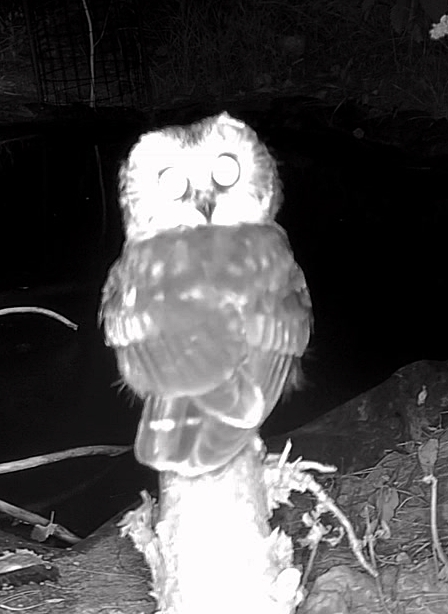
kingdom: Animalia
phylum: Chordata
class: Aves
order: Strigiformes
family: Strigidae
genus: Aegolius
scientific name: Aegolius acadicus
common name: Northern saw-whet owl
